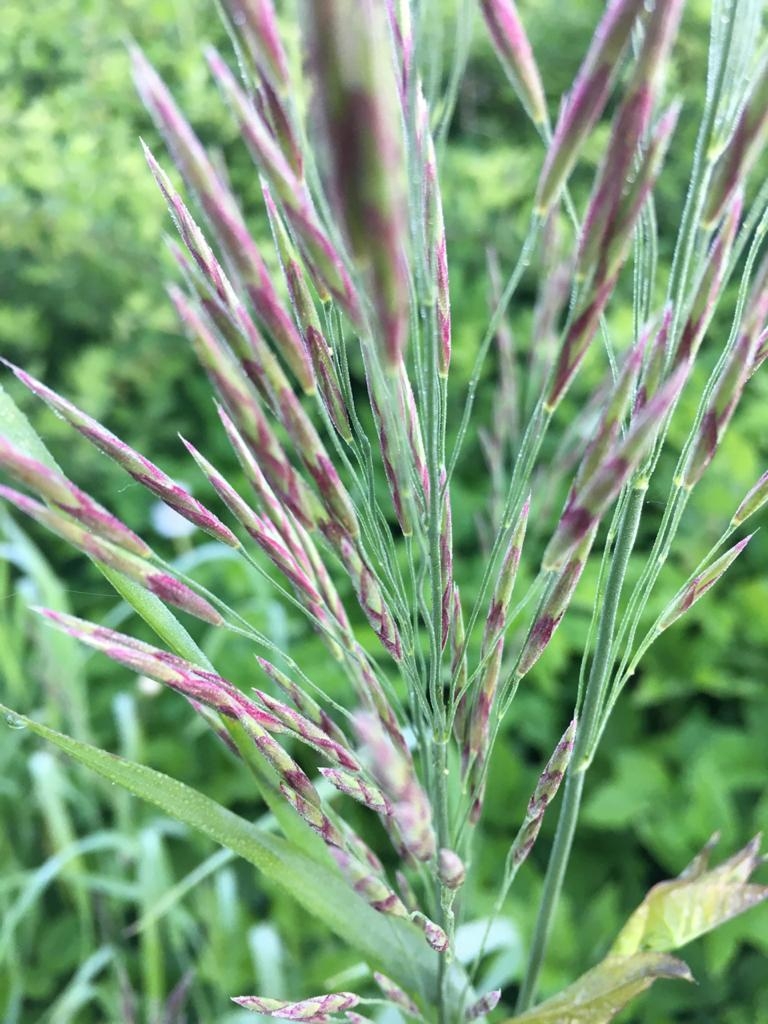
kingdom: Plantae
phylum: Tracheophyta
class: Liliopsida
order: Poales
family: Poaceae
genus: Bromus
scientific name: Bromus inermis
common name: Smooth brome
